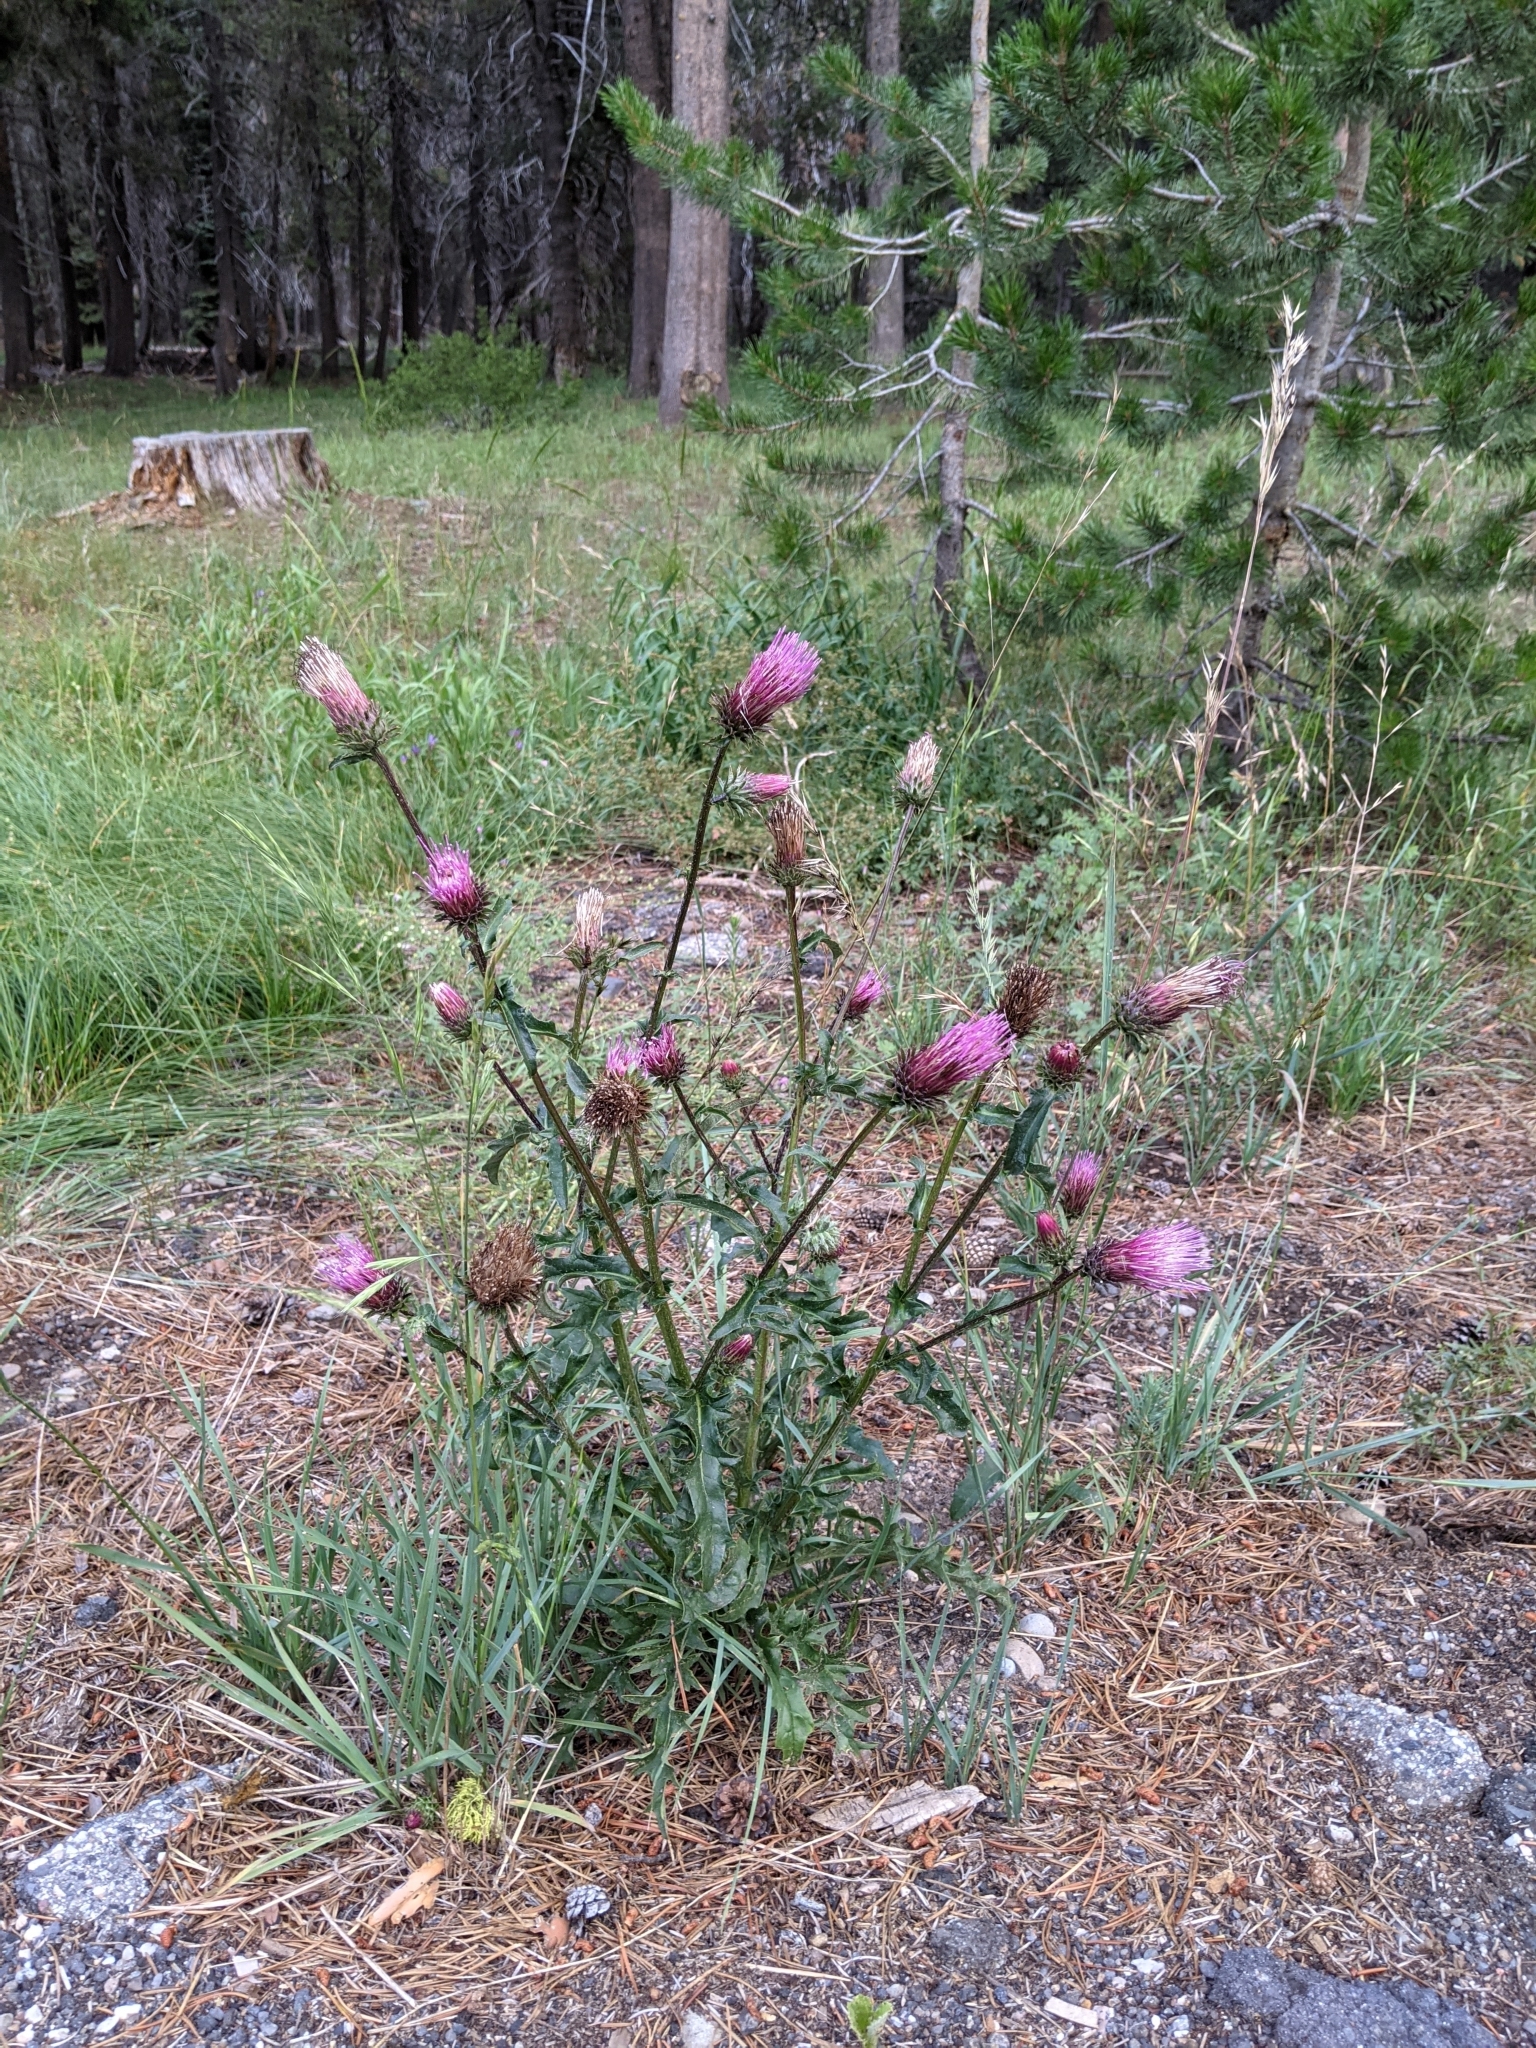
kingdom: Plantae
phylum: Tracheophyta
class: Magnoliopsida
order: Asterales
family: Asteraceae
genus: Cirsium
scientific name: Cirsium andersonii
